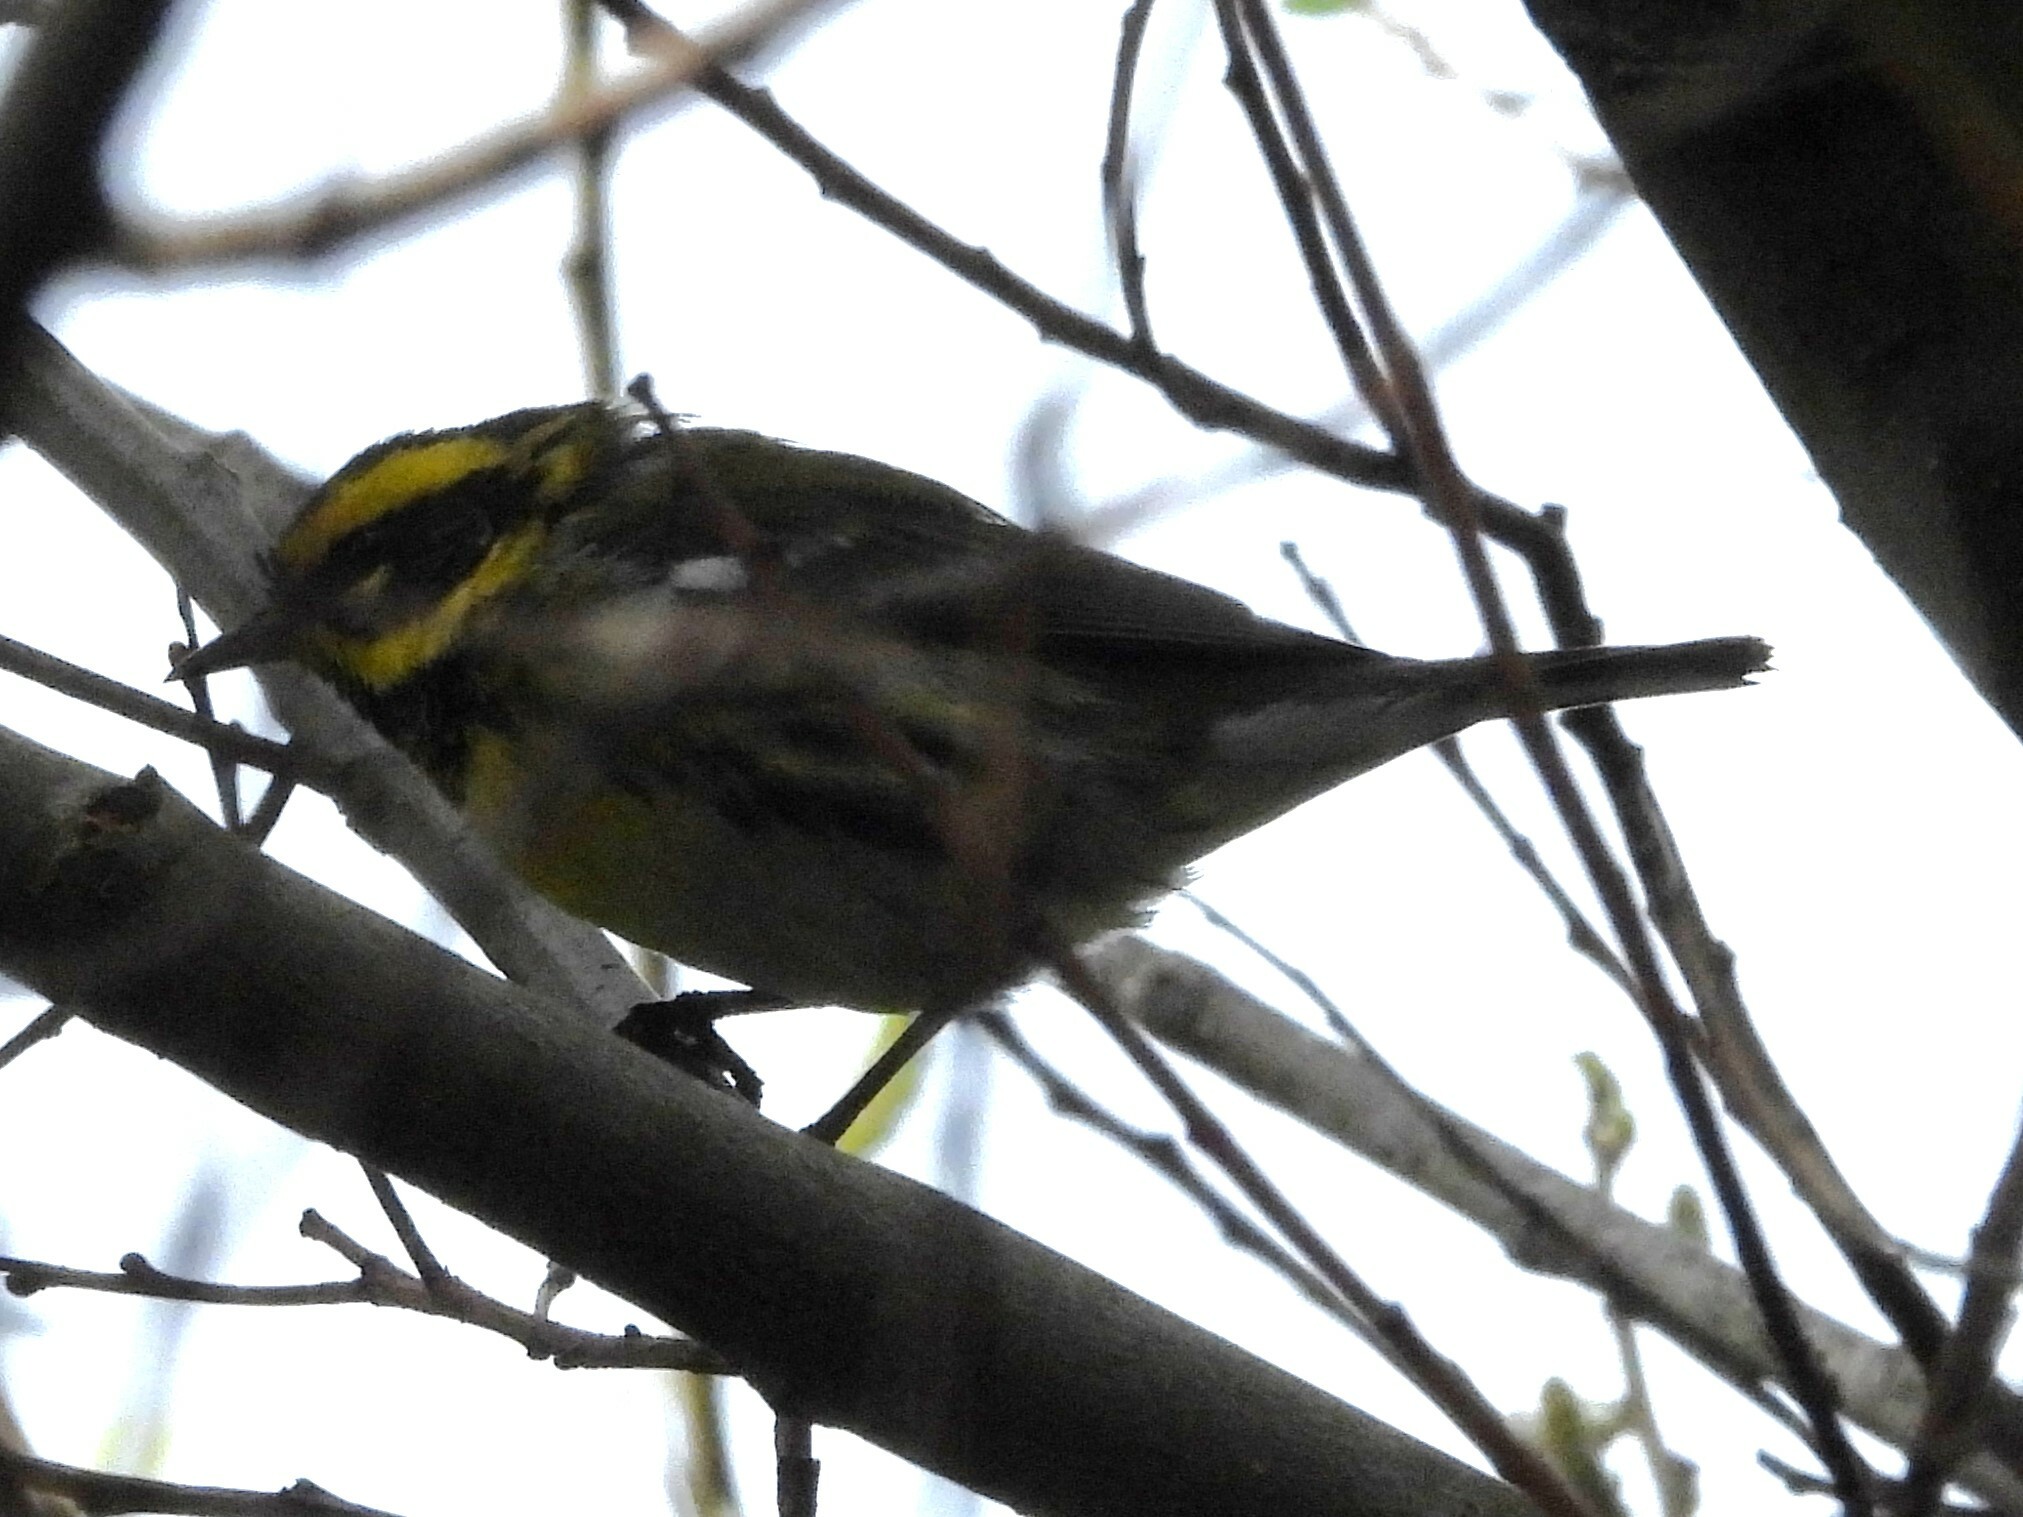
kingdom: Animalia
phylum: Chordata
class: Aves
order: Passeriformes
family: Parulidae
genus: Setophaga
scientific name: Setophaga townsendi
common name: Townsend's warbler
